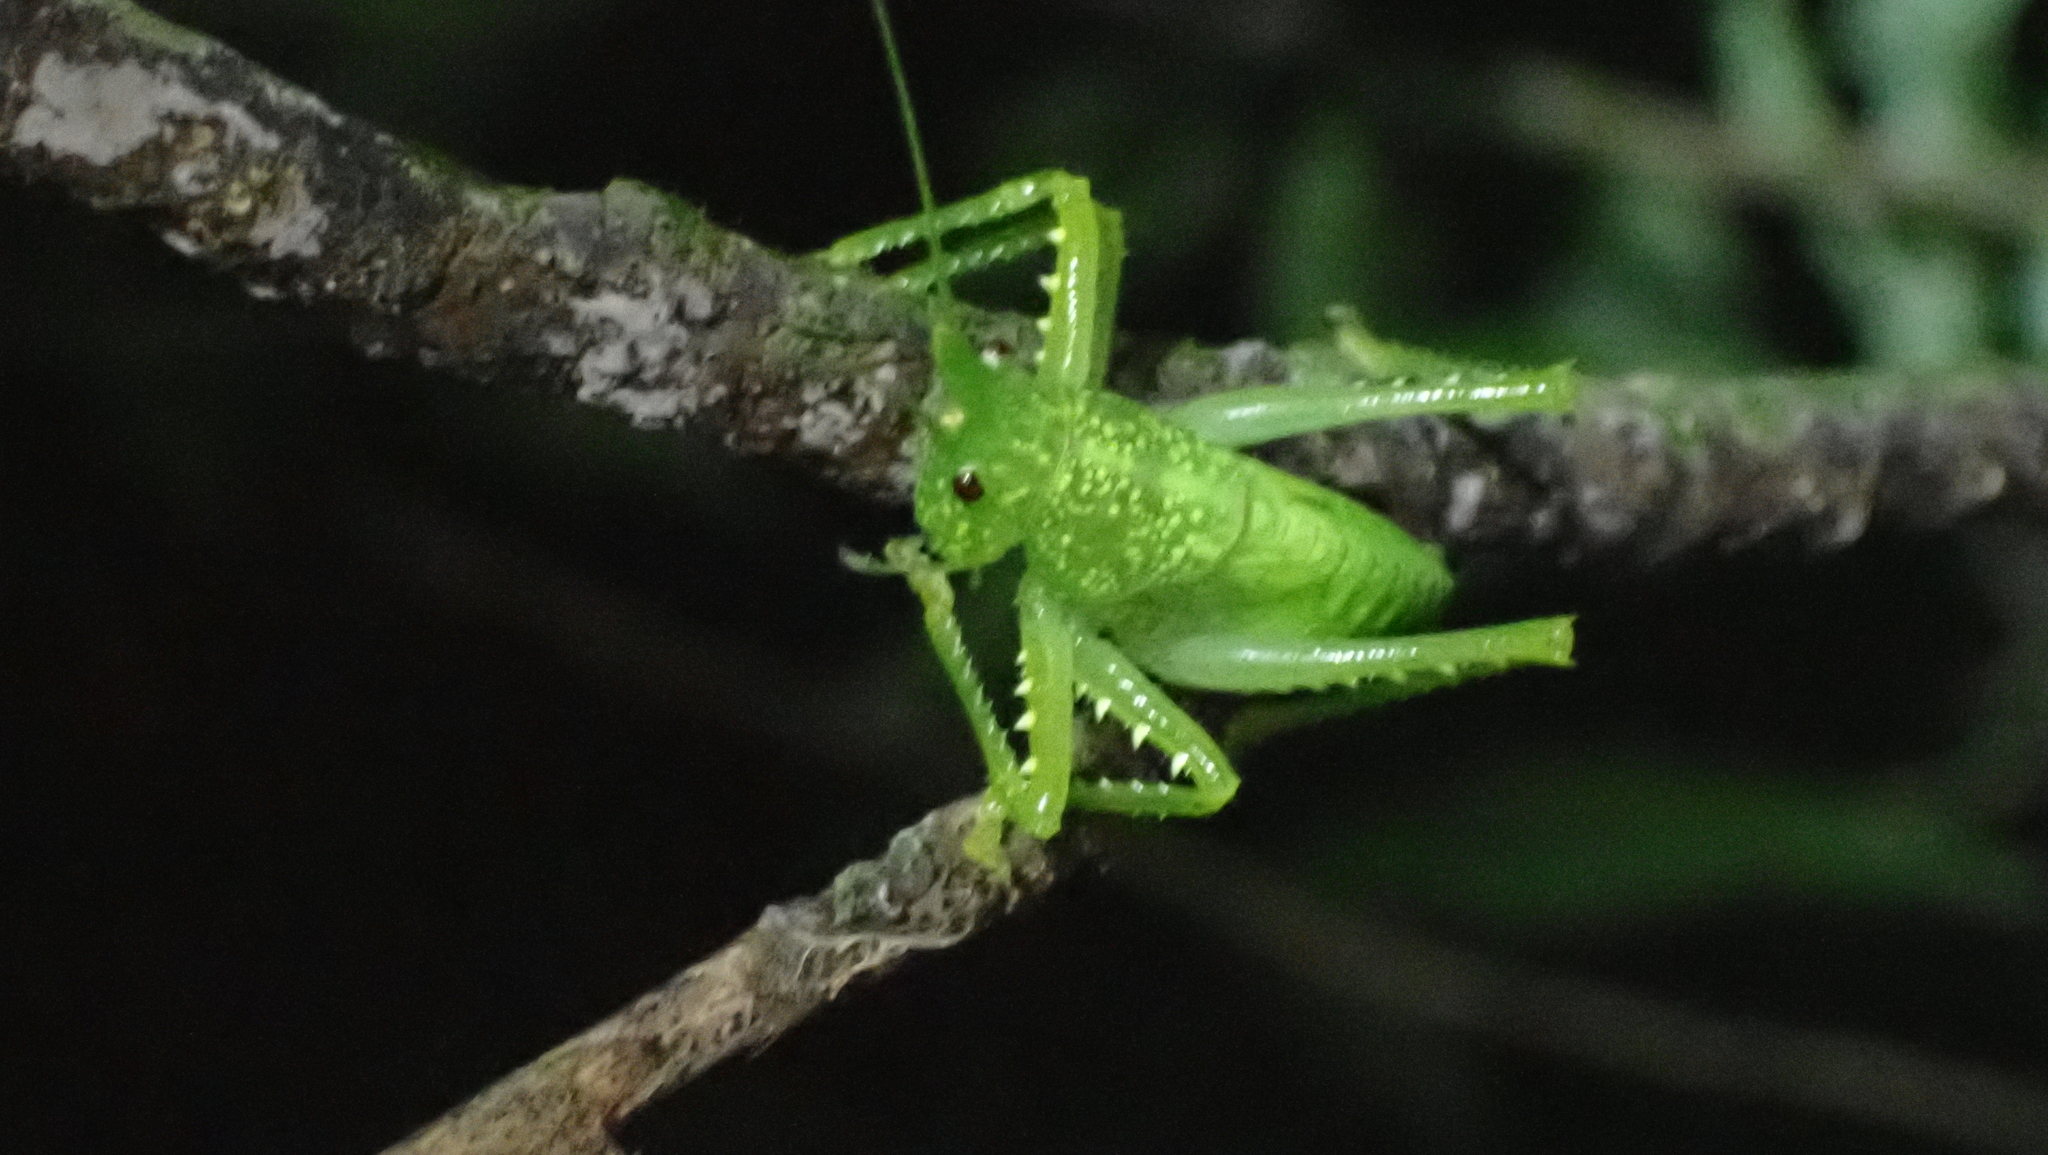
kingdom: Animalia
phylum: Arthropoda
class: Insecta
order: Orthoptera
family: Tettigoniidae
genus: Copiphora
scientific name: Copiphora rhinoceros
